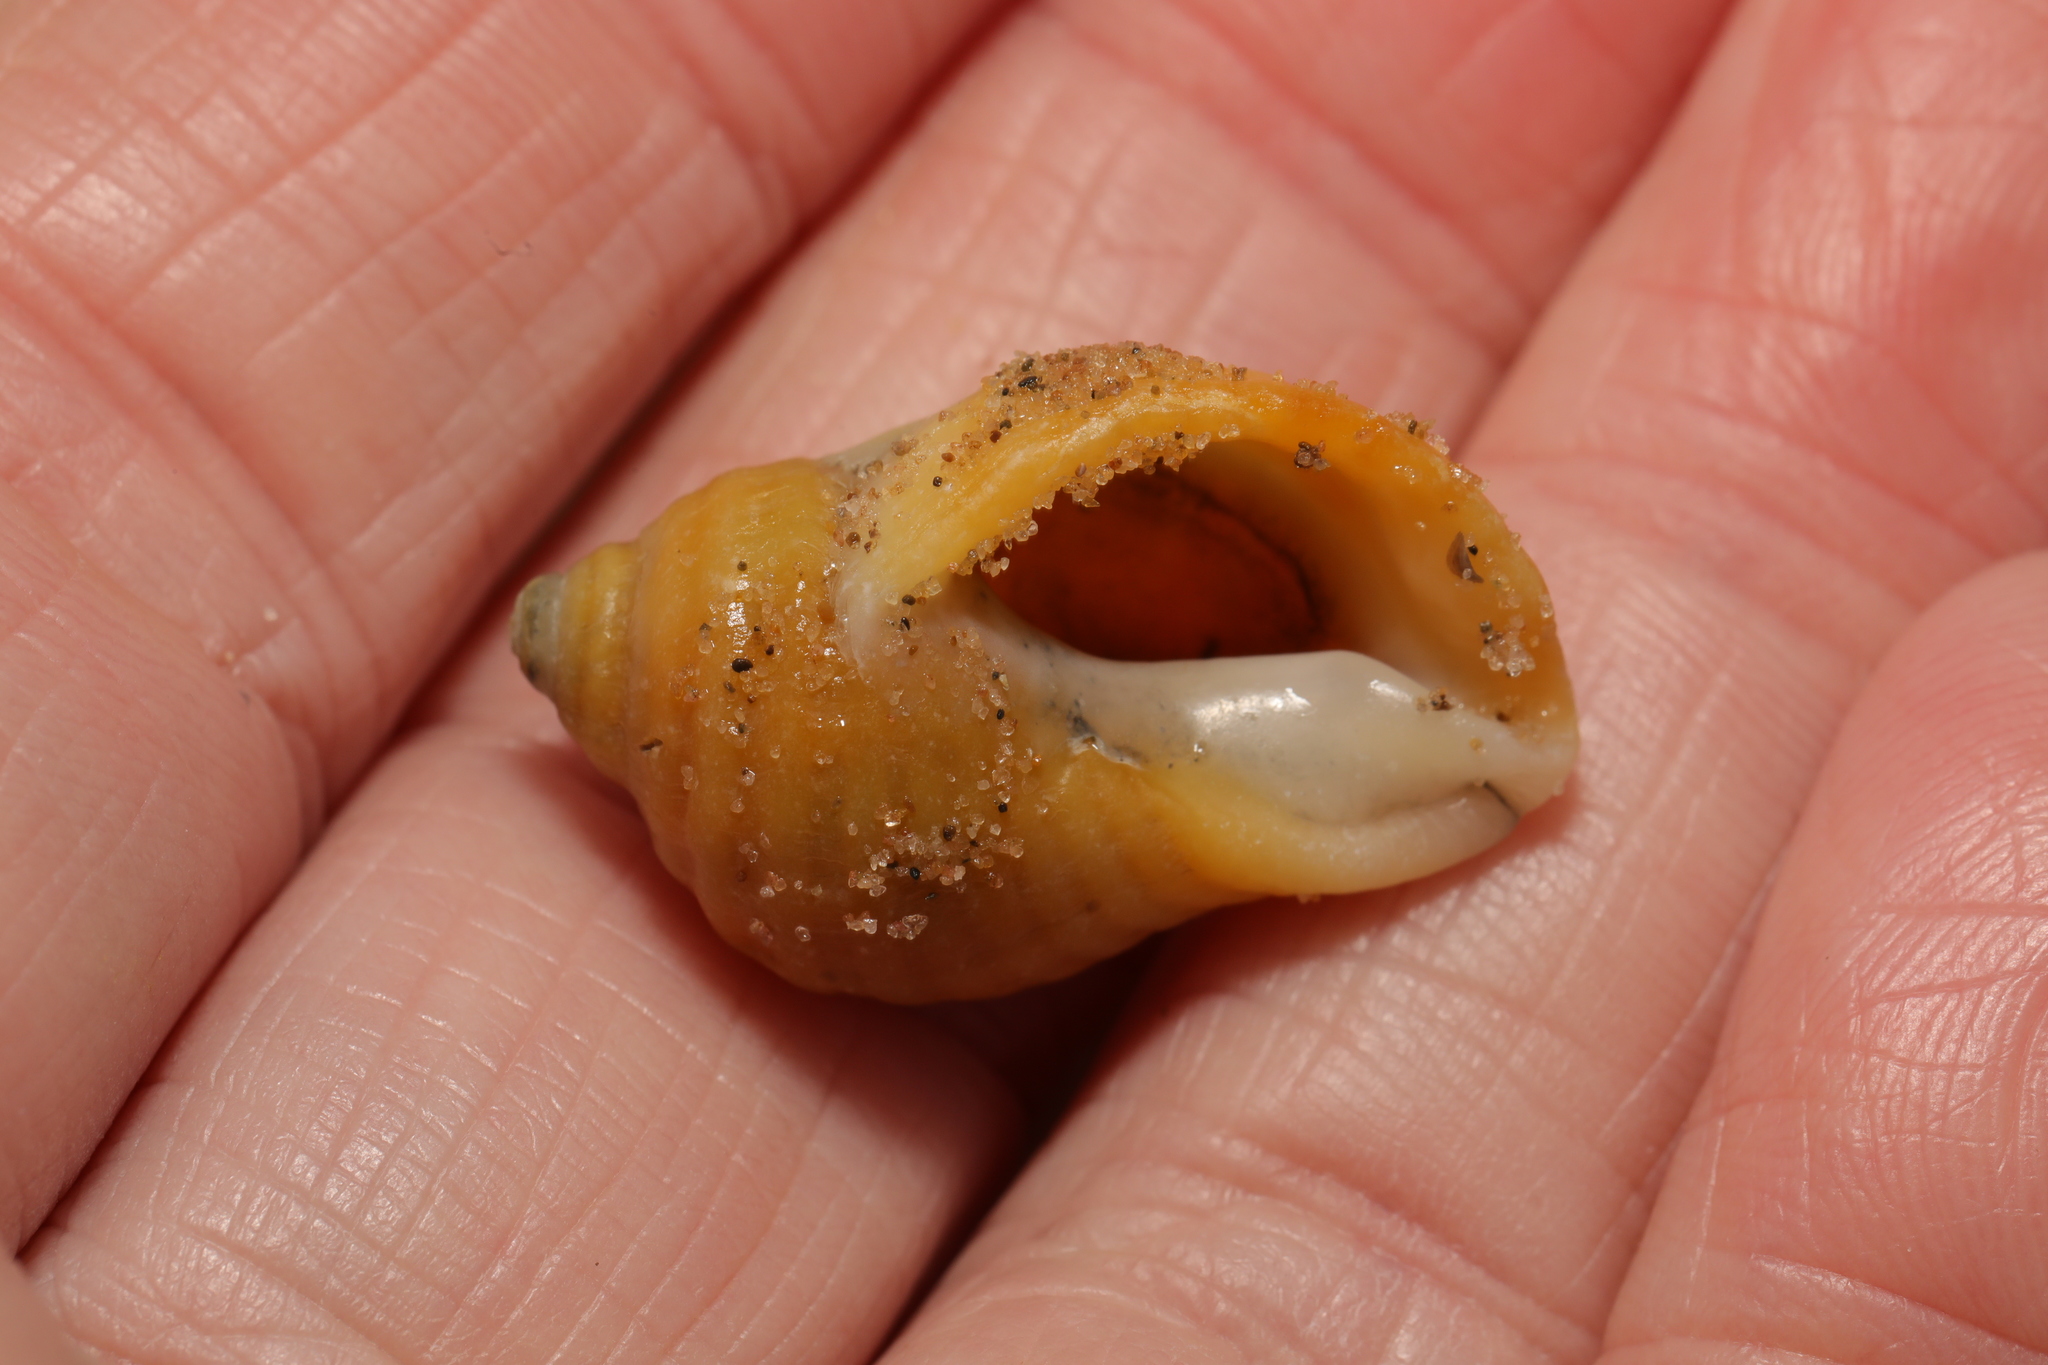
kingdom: Animalia
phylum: Mollusca
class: Gastropoda
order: Neogastropoda
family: Muricidae
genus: Nucella
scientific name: Nucella lapillus
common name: Dog whelk
